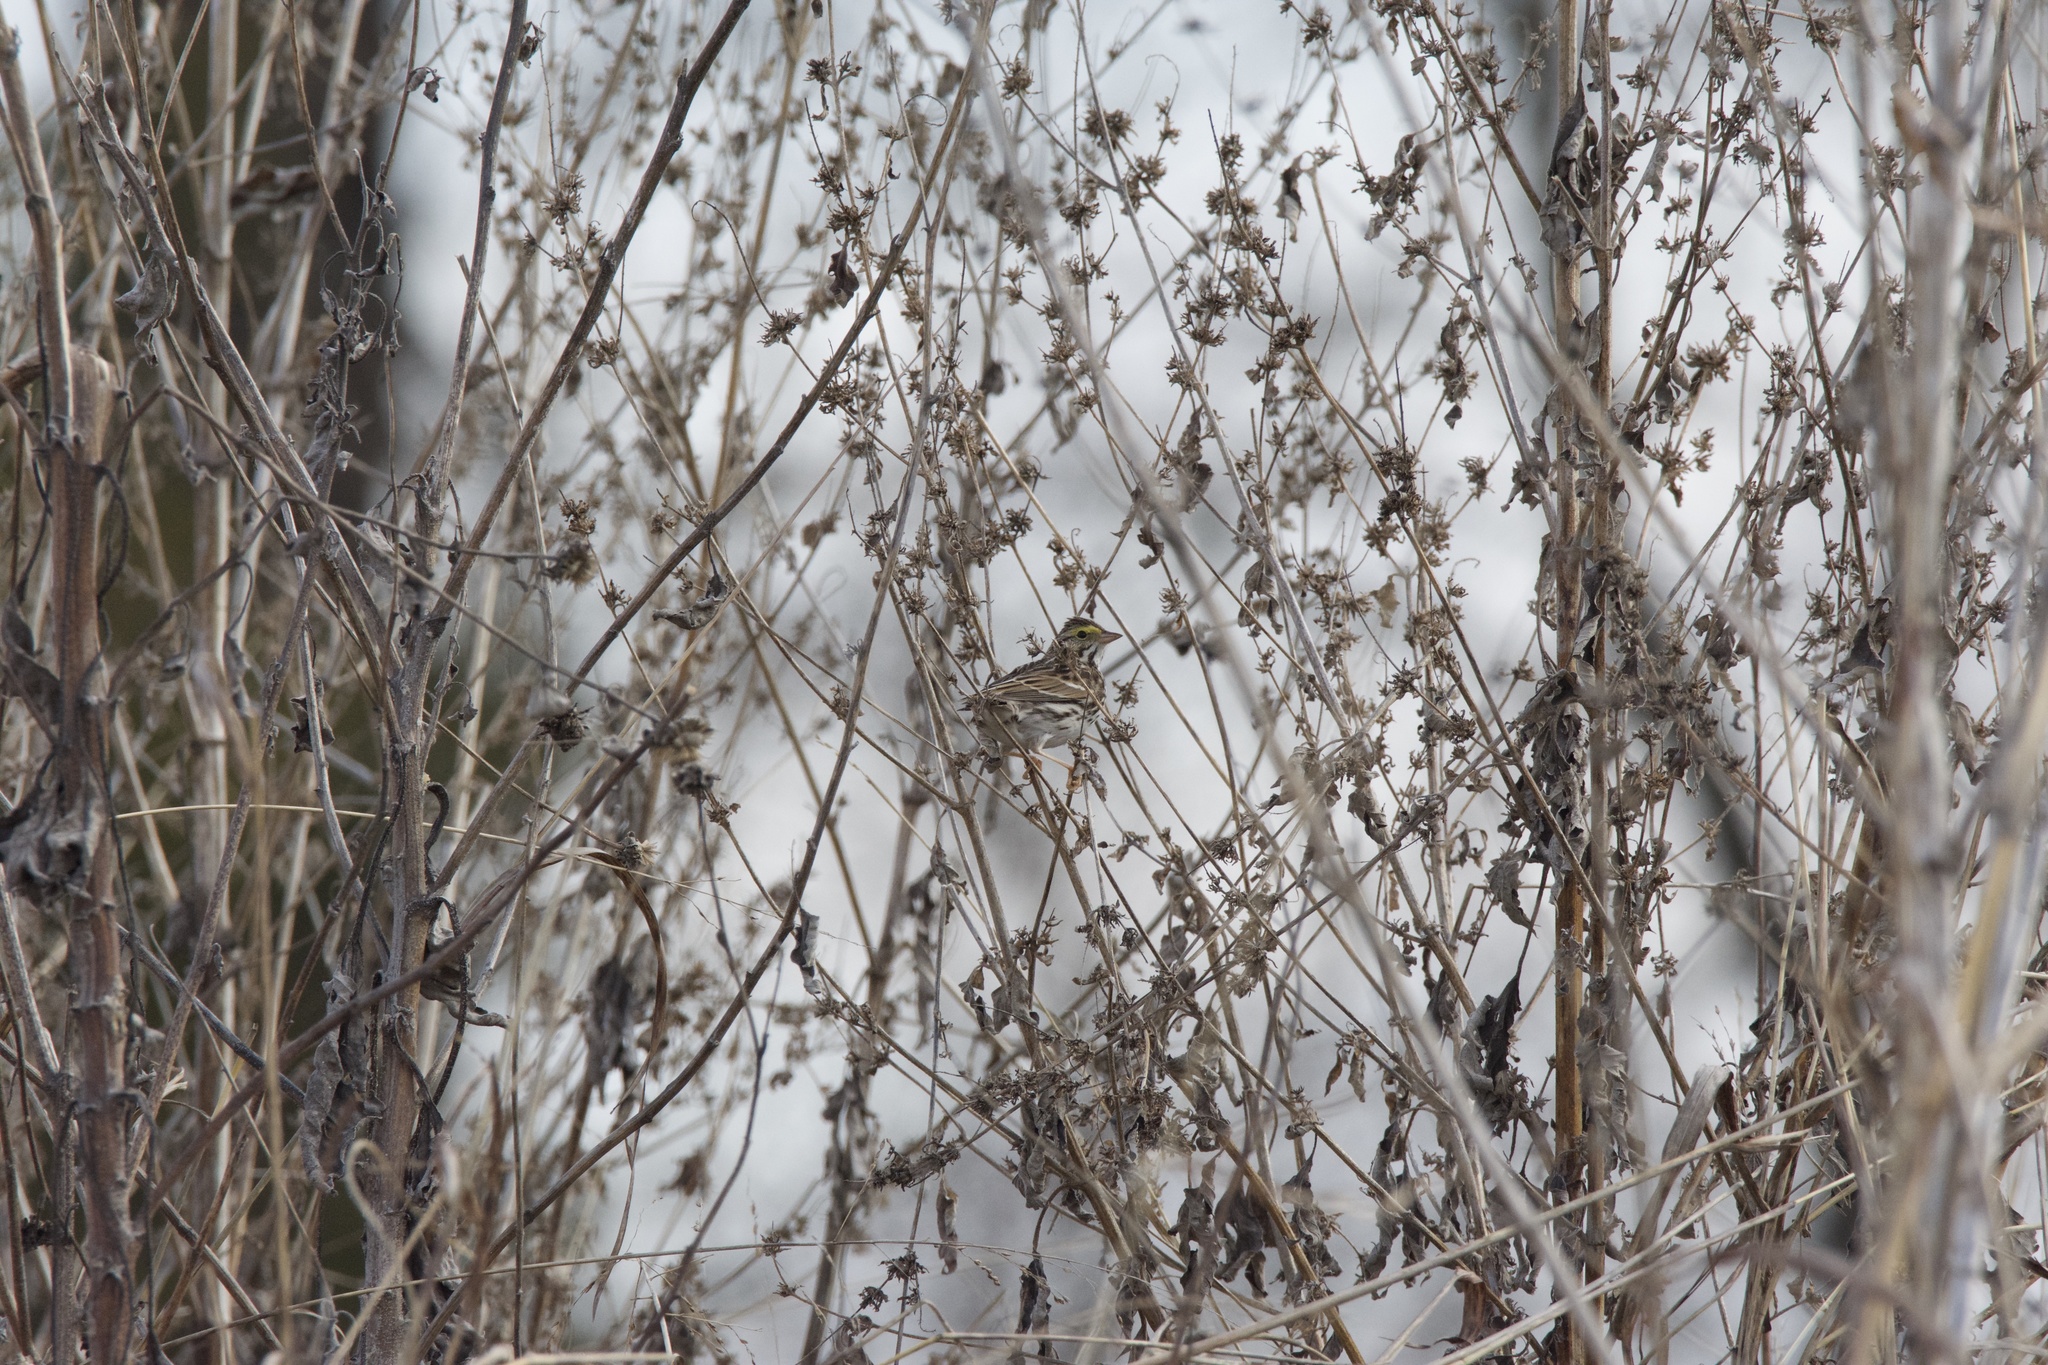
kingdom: Animalia
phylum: Chordata
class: Aves
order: Passeriformes
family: Passerellidae
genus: Passerculus
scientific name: Passerculus sandwichensis
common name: Savannah sparrow
